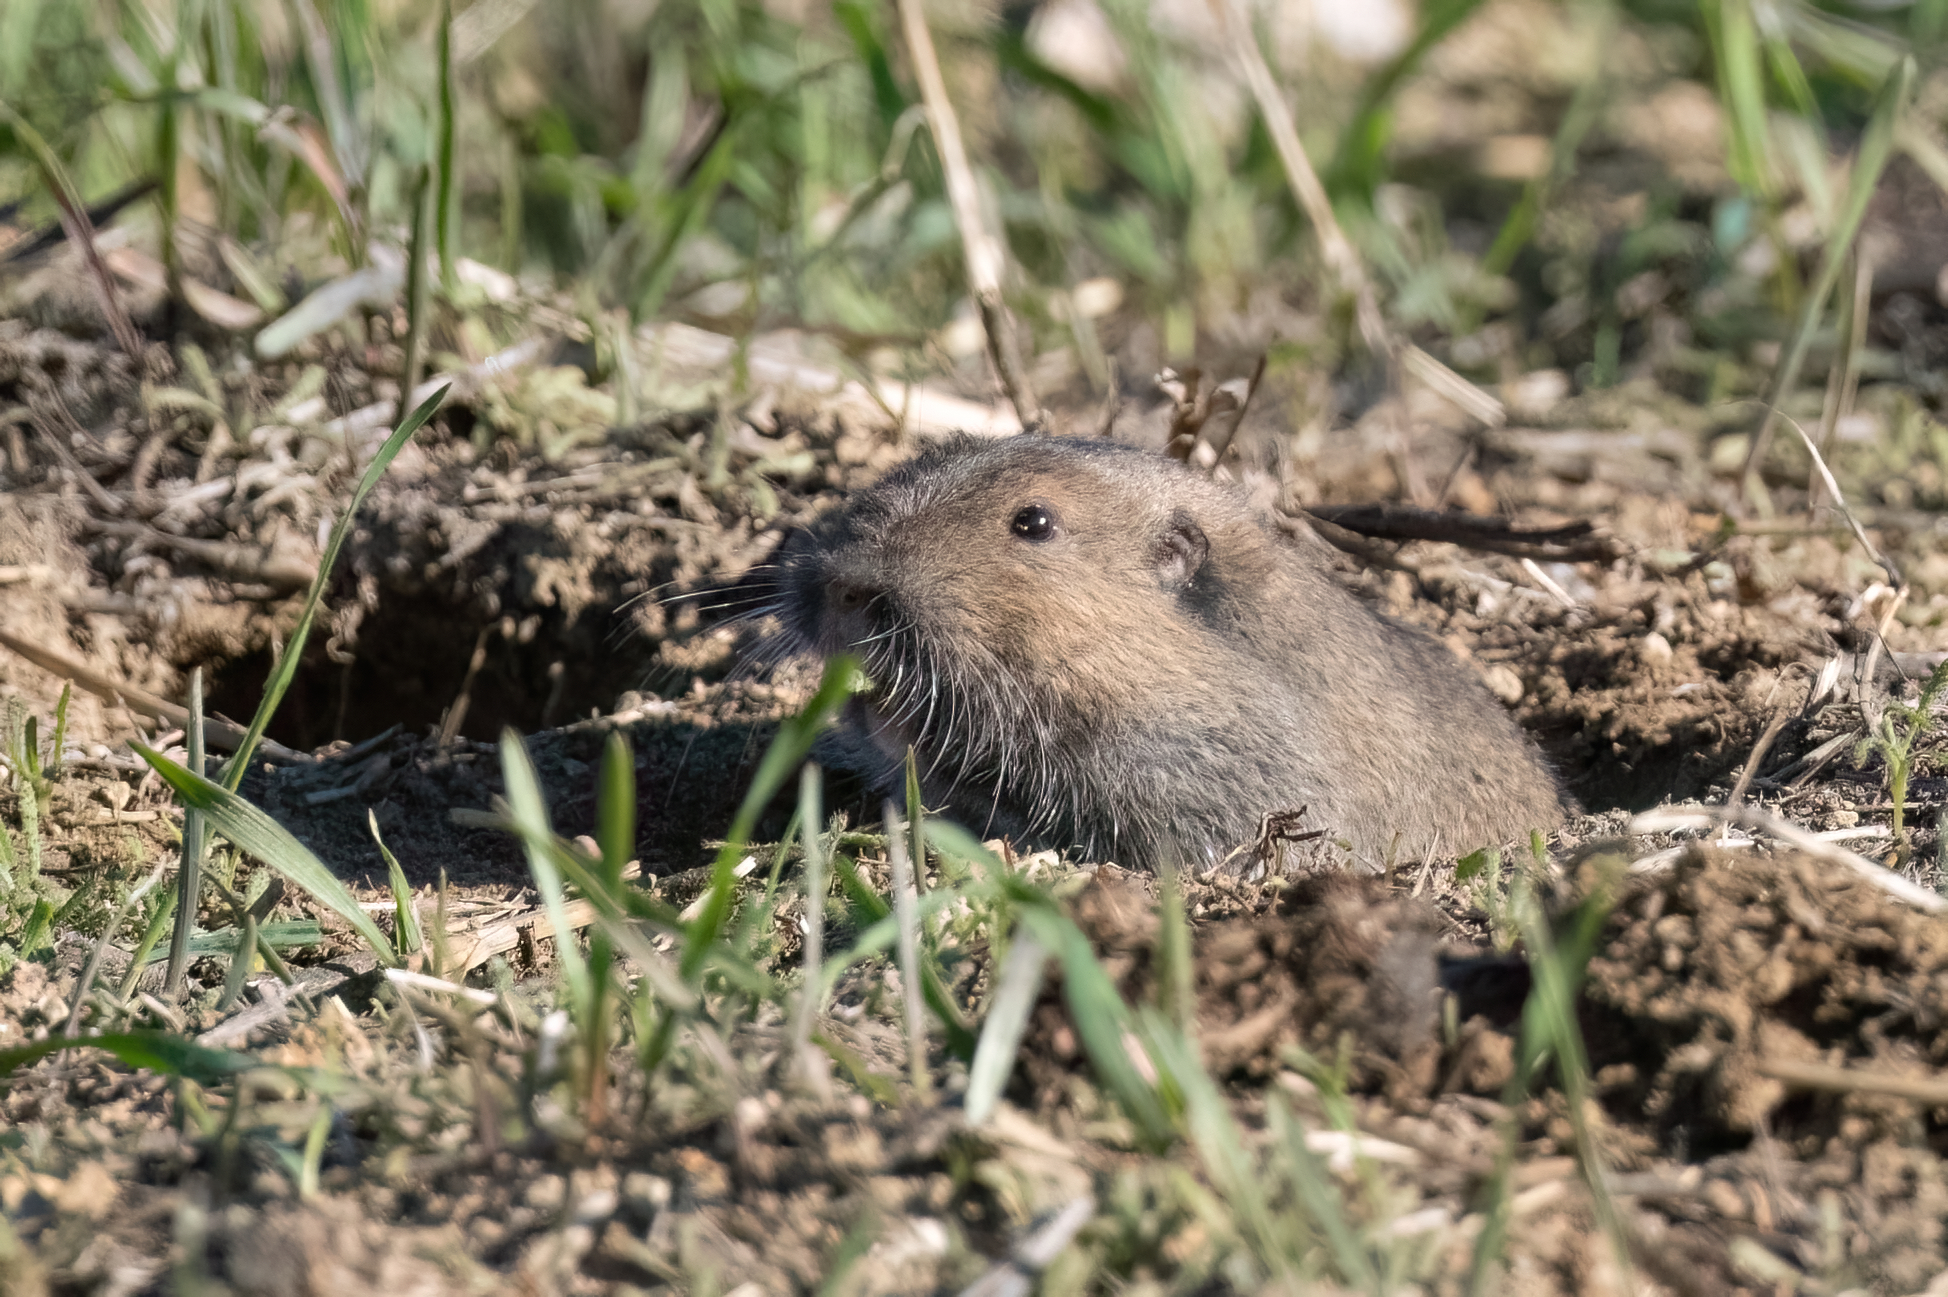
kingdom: Animalia
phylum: Chordata
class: Mammalia
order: Rodentia
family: Geomyidae
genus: Thomomys
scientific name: Thomomys bottae
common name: Botta's pocket gopher
